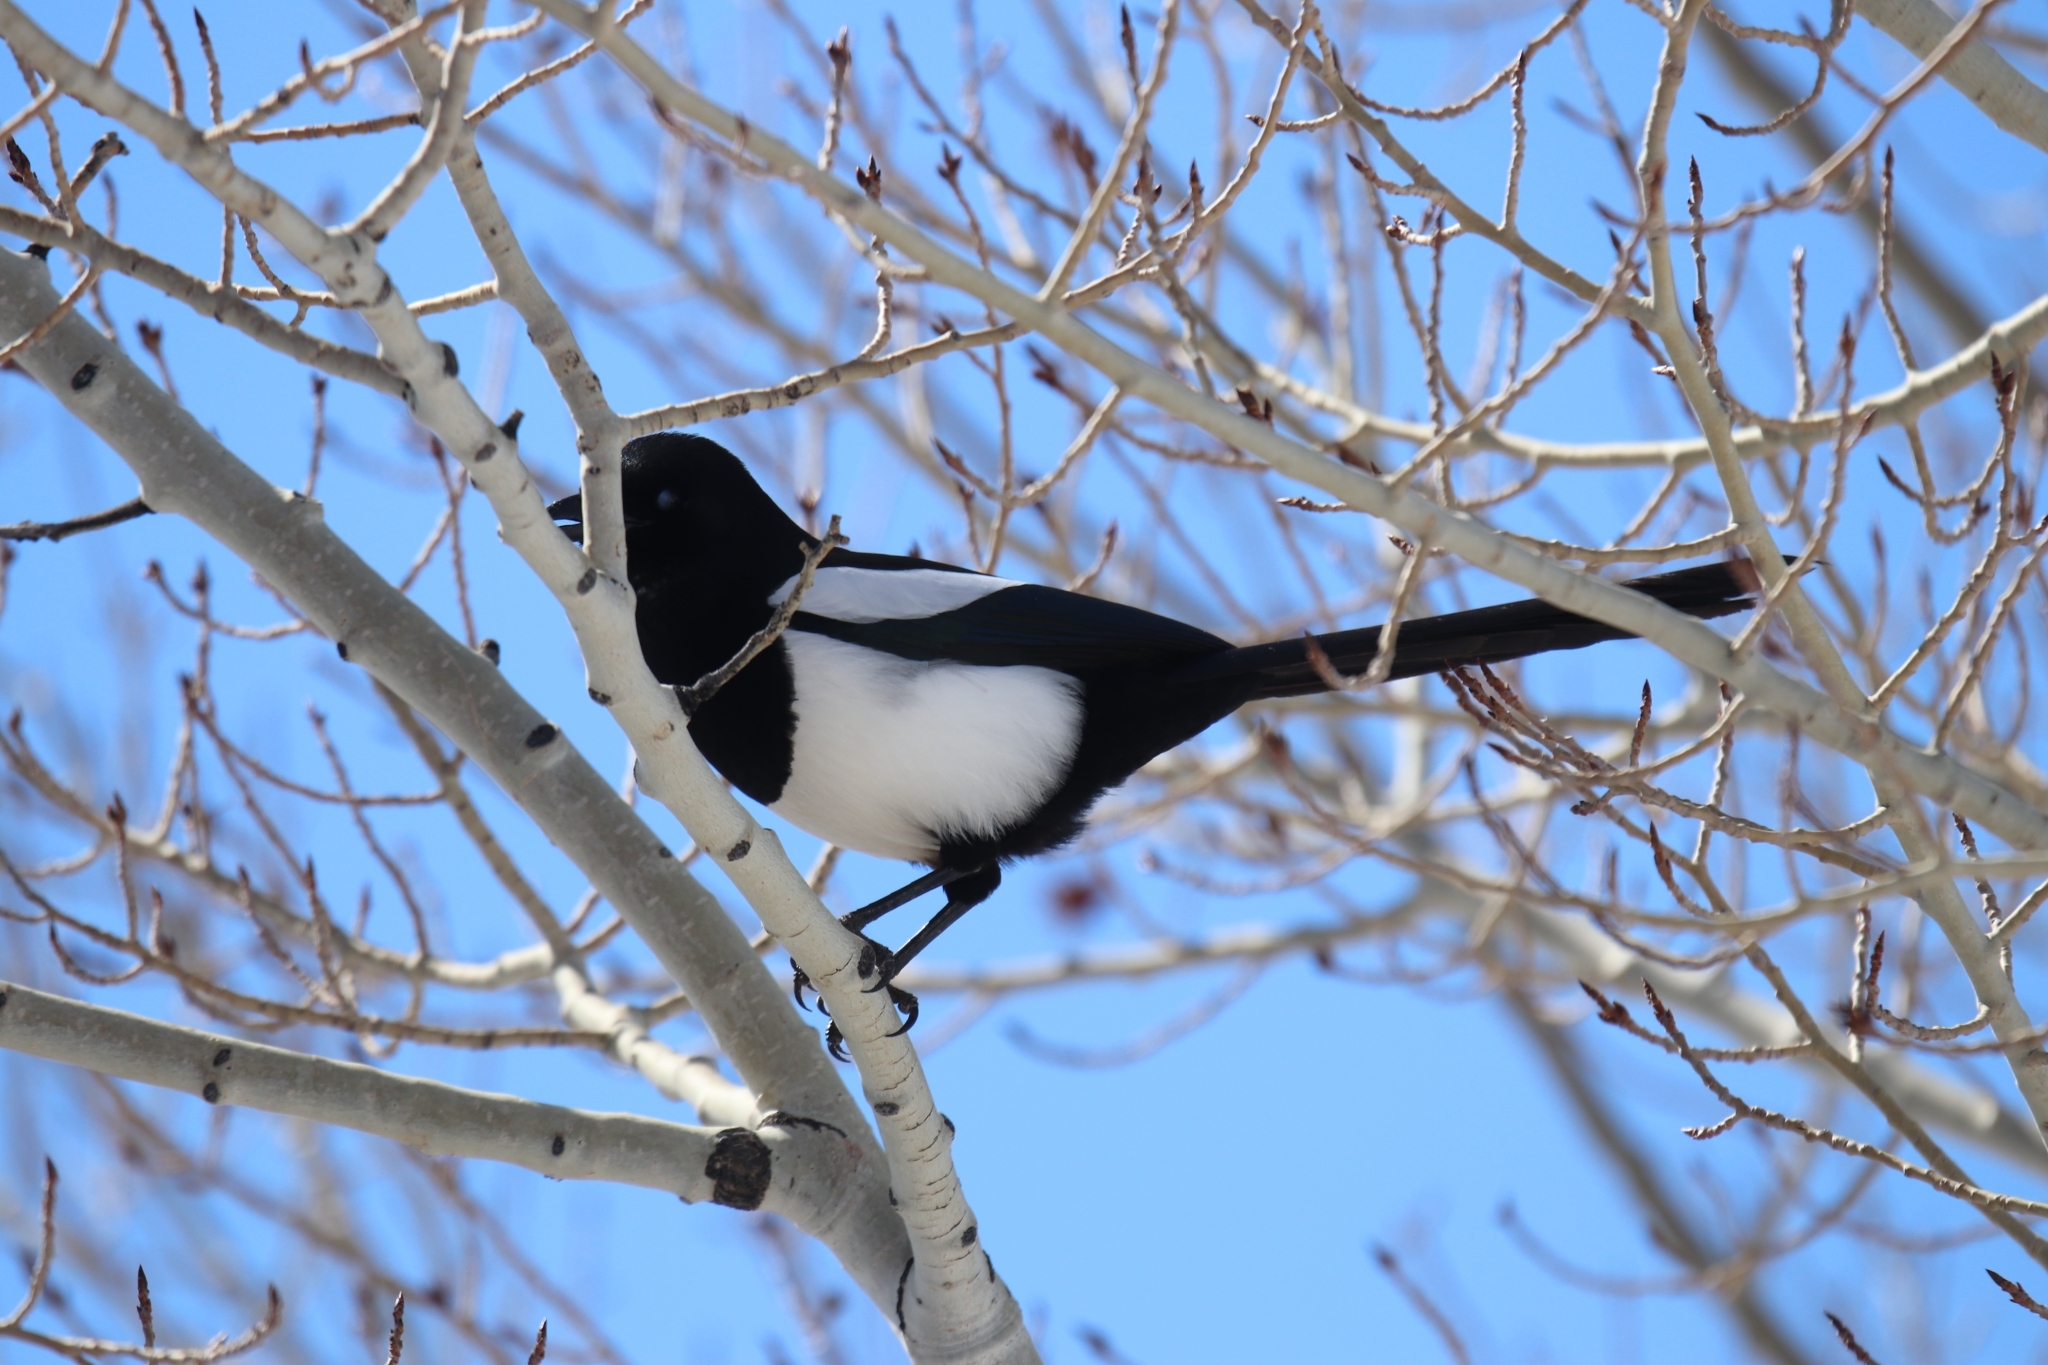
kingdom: Animalia
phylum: Chordata
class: Aves
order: Passeriformes
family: Corvidae
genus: Pica
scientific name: Pica hudsonia
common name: Black-billed magpie
